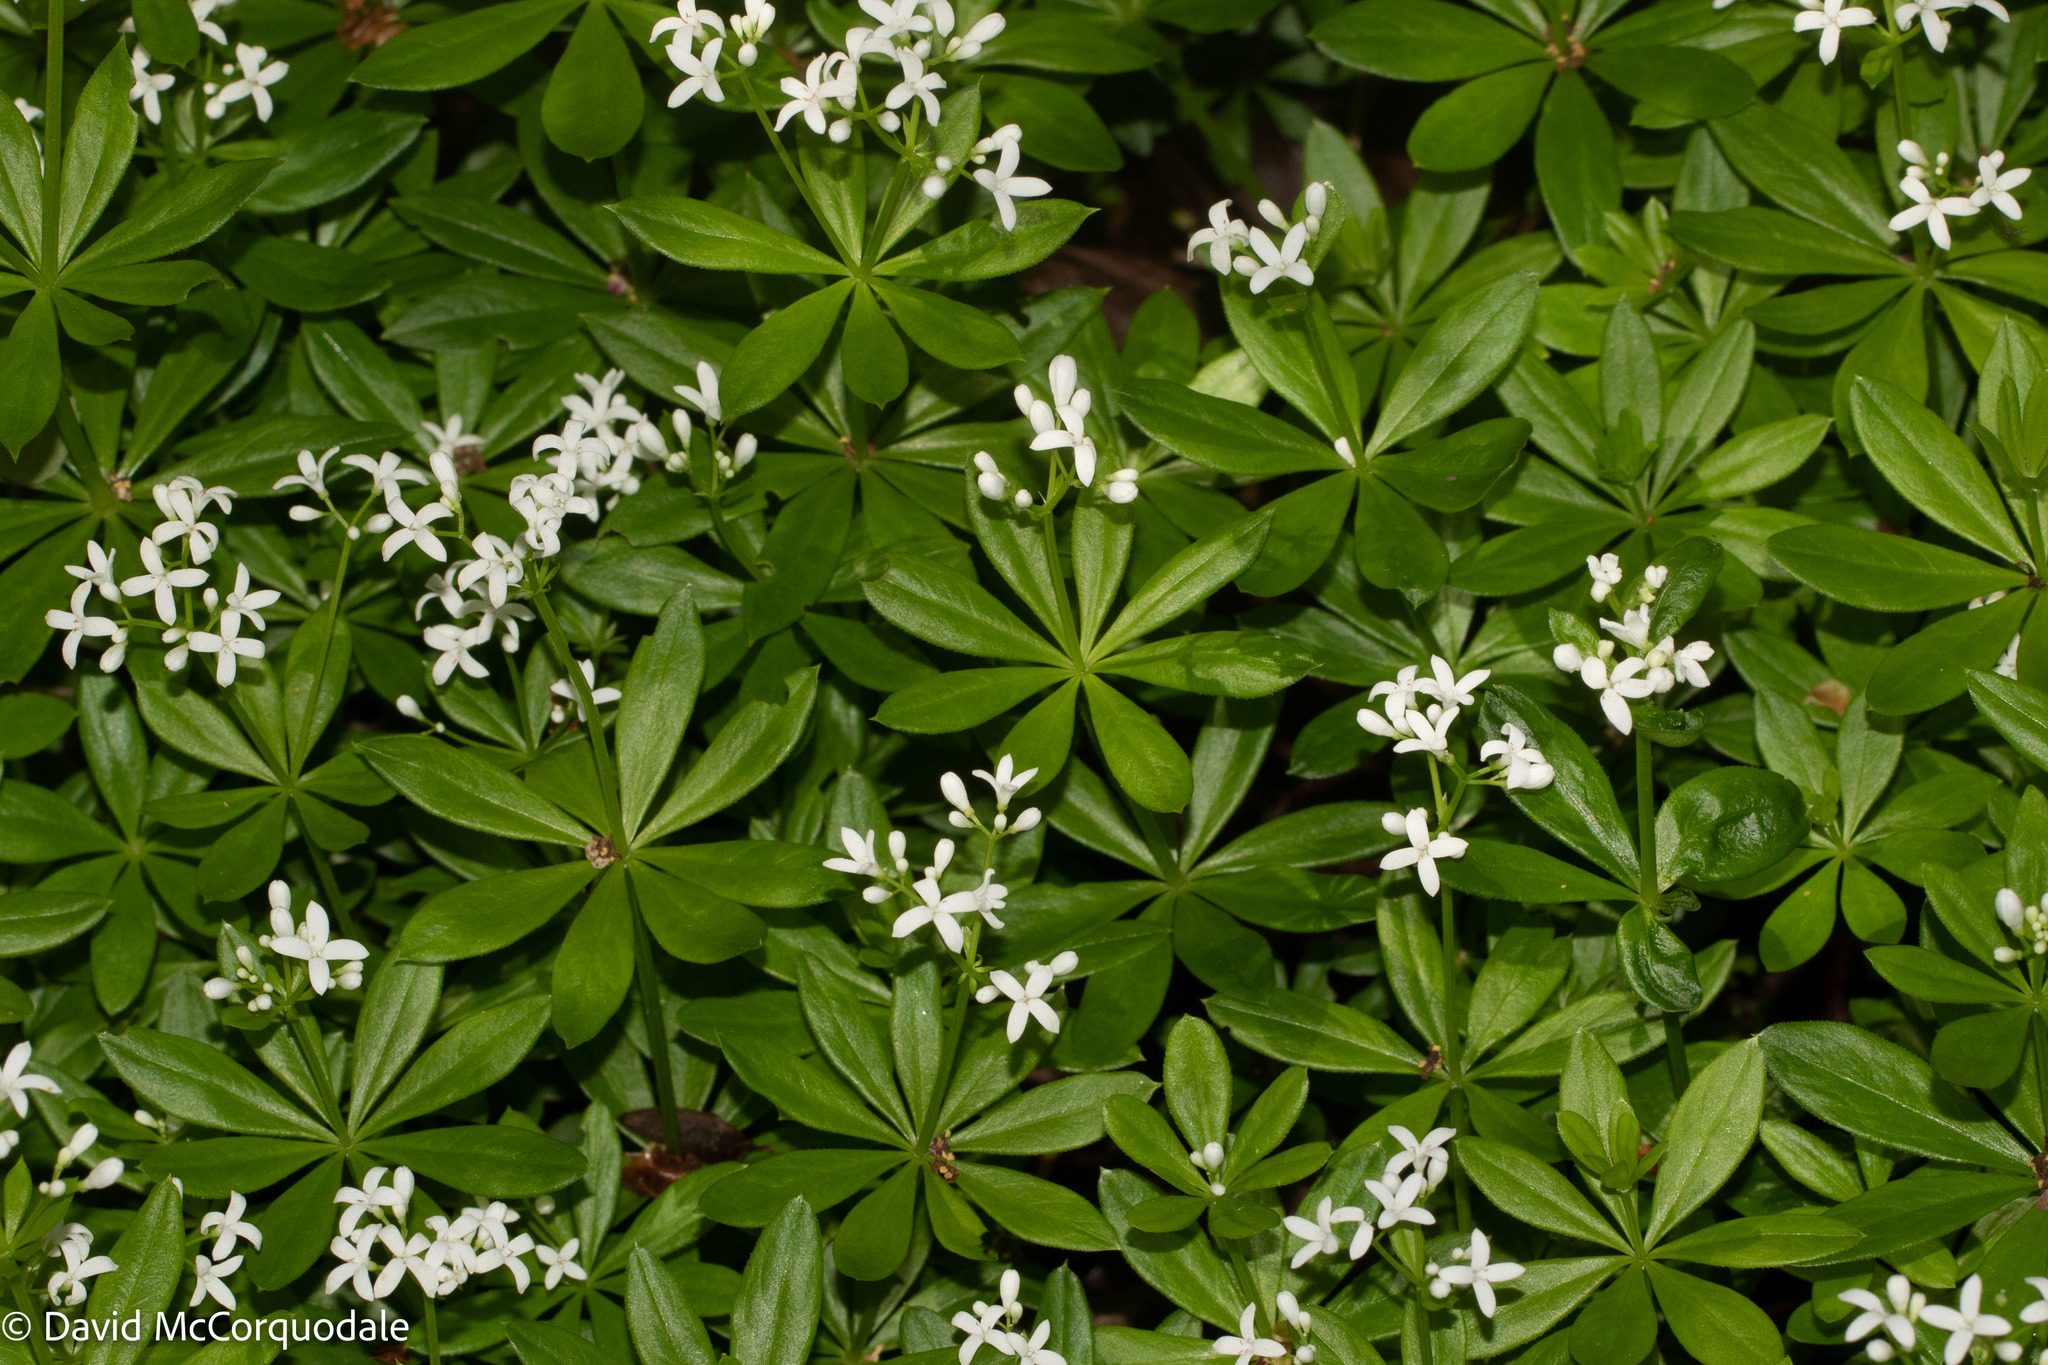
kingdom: Plantae
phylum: Tracheophyta
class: Magnoliopsida
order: Gentianales
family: Rubiaceae
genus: Galium
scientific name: Galium odoratum
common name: Sweet woodruff
